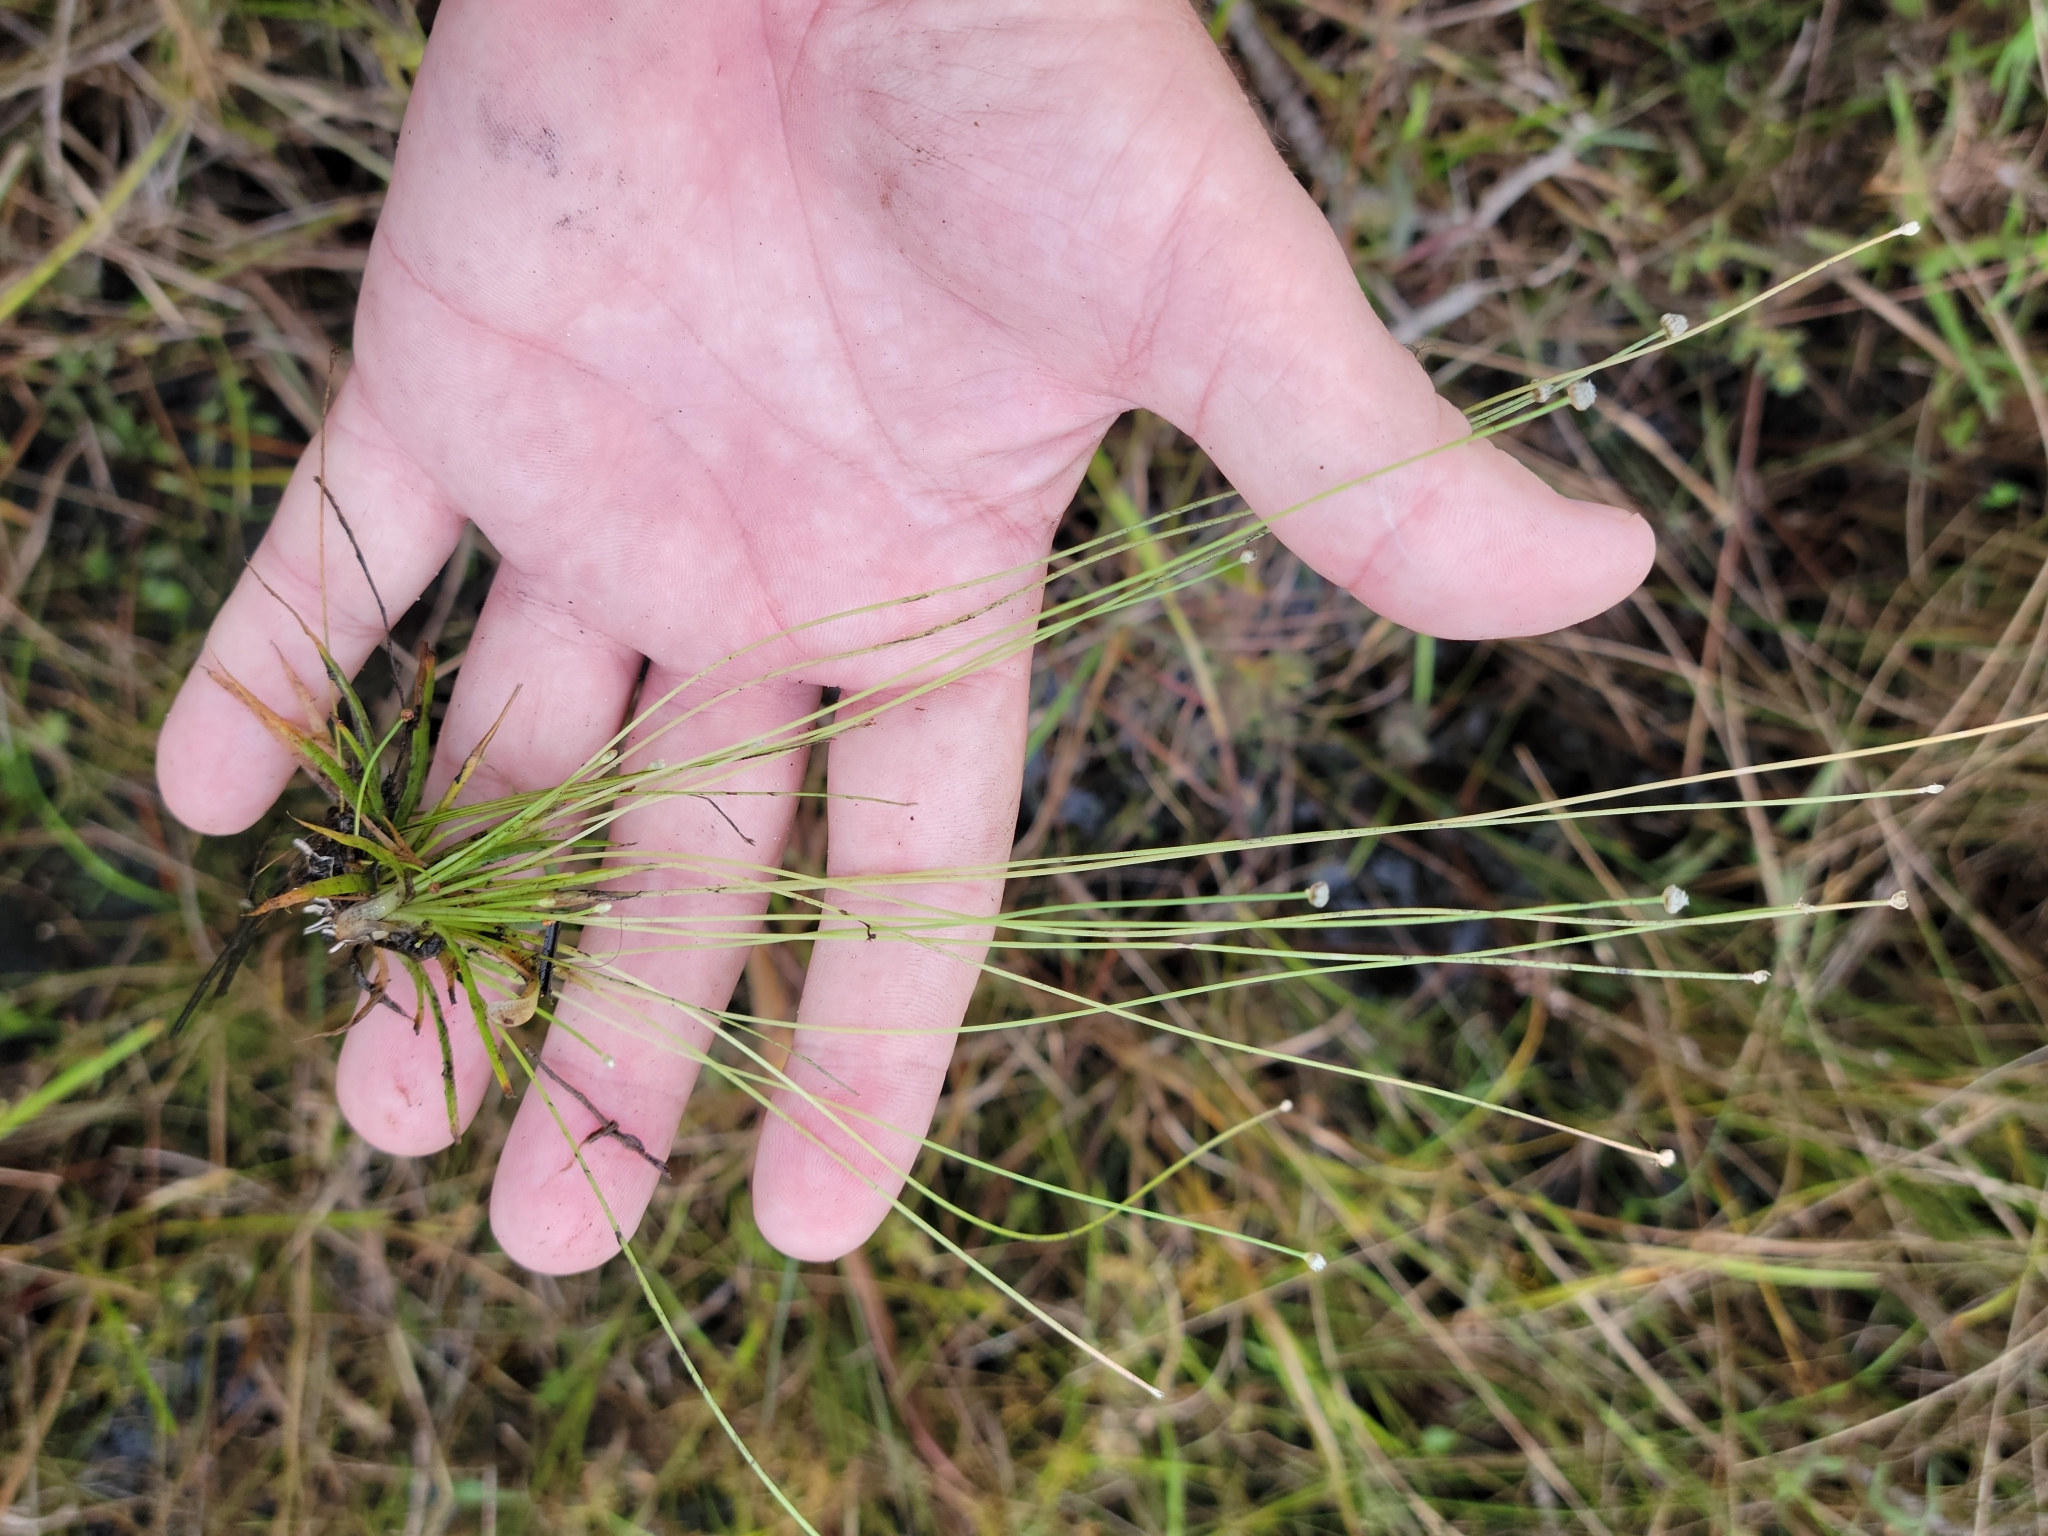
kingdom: Plantae
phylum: Tracheophyta
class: Liliopsida
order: Poales
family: Eriocaulaceae
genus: Eriocaulon
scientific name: Eriocaulon ravenelii
